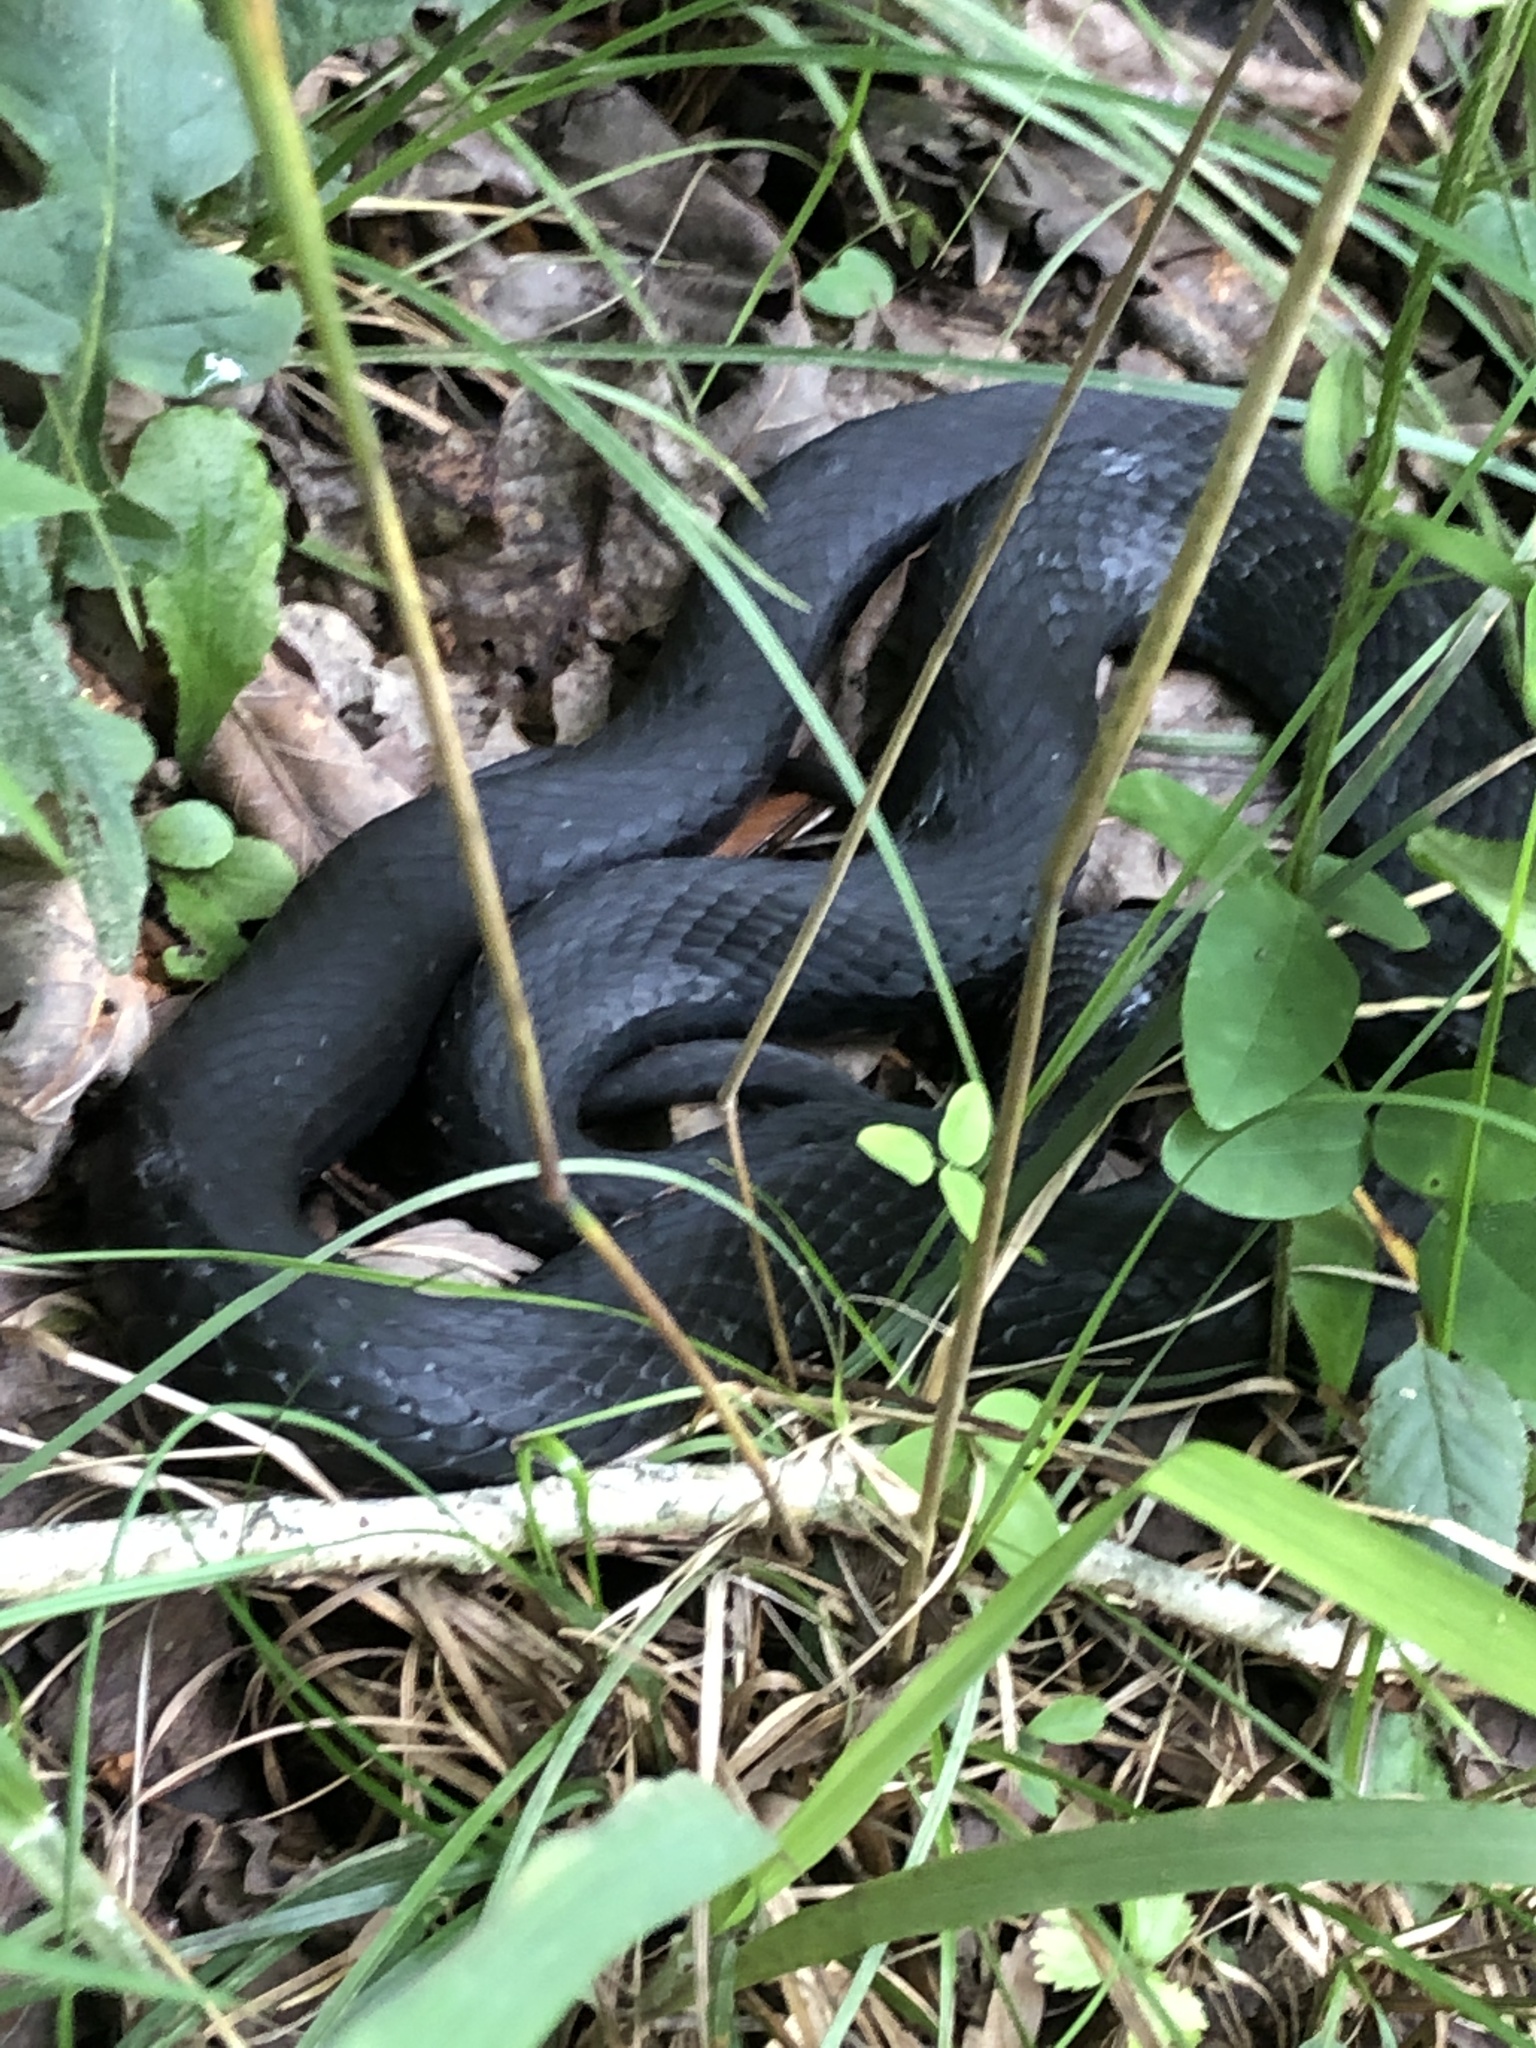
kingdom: Animalia
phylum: Chordata
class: Squamata
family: Colubridae
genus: Coluber
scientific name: Coluber constrictor
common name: Eastern racer
